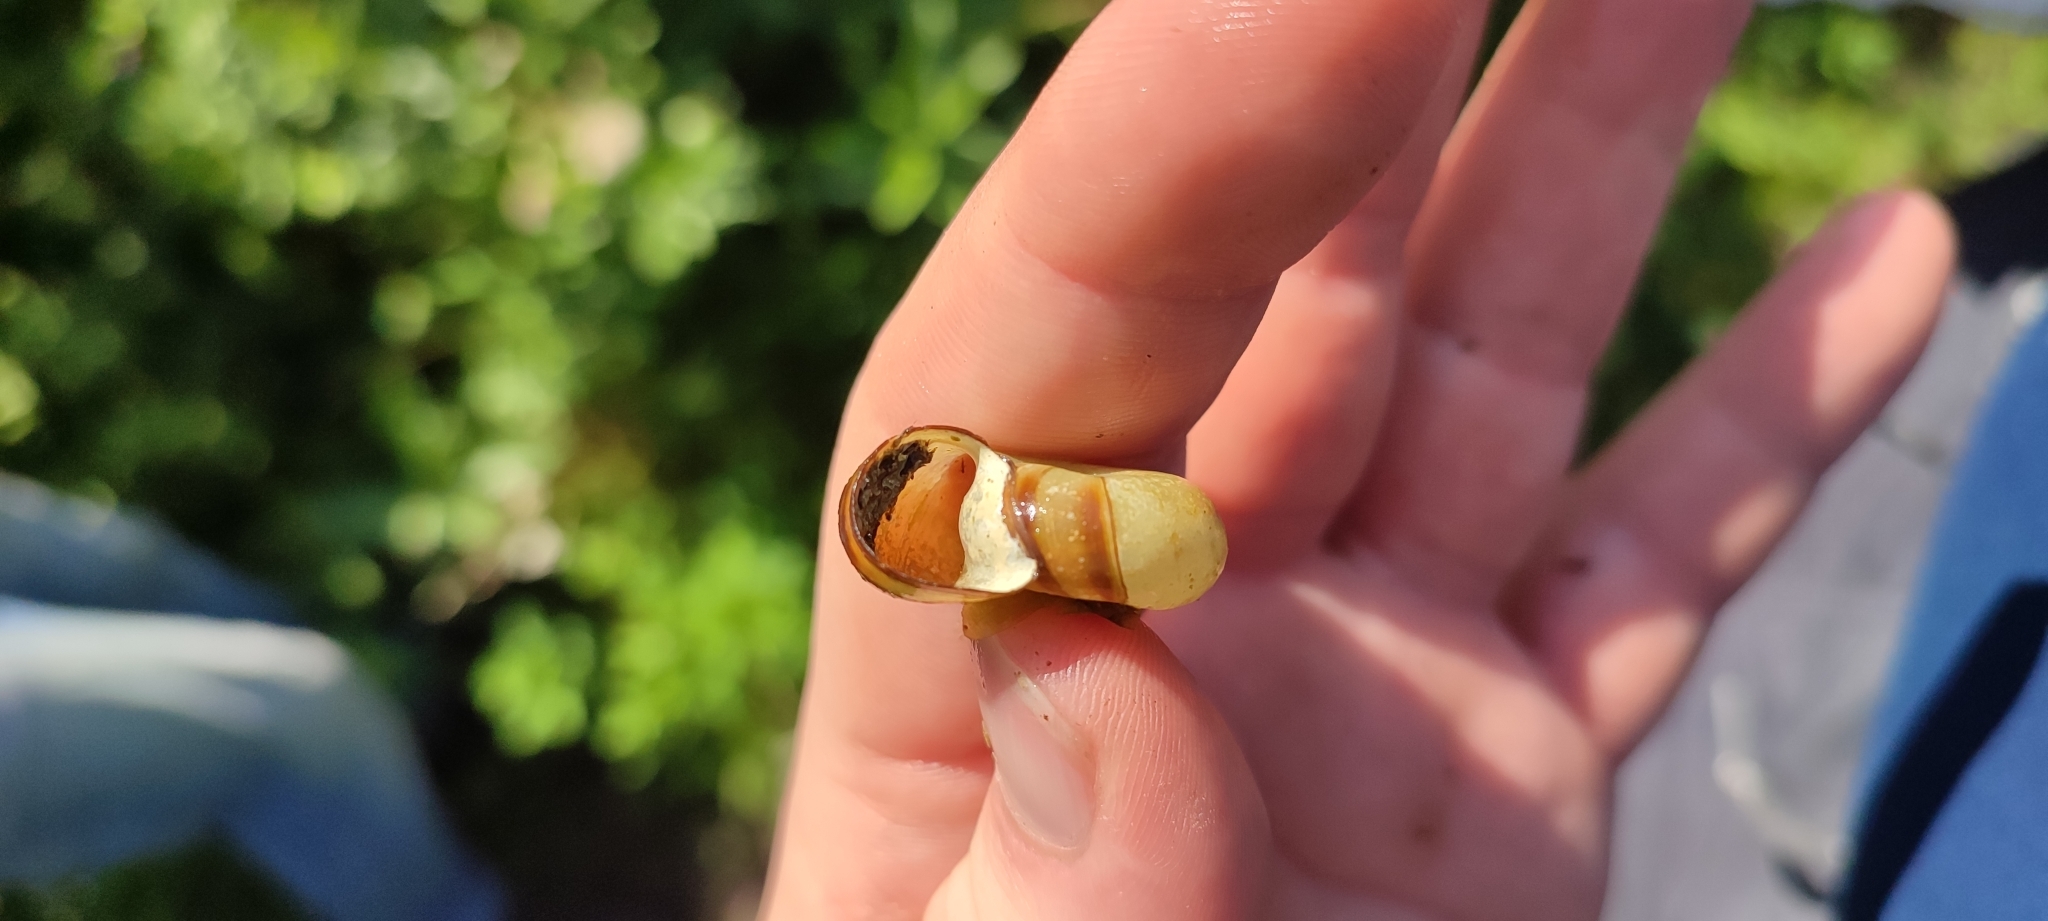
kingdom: Animalia
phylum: Mollusca
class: Gastropoda
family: Planorbidae
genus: Planorbarius
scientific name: Planorbarius corneus
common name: Great ramshorn
